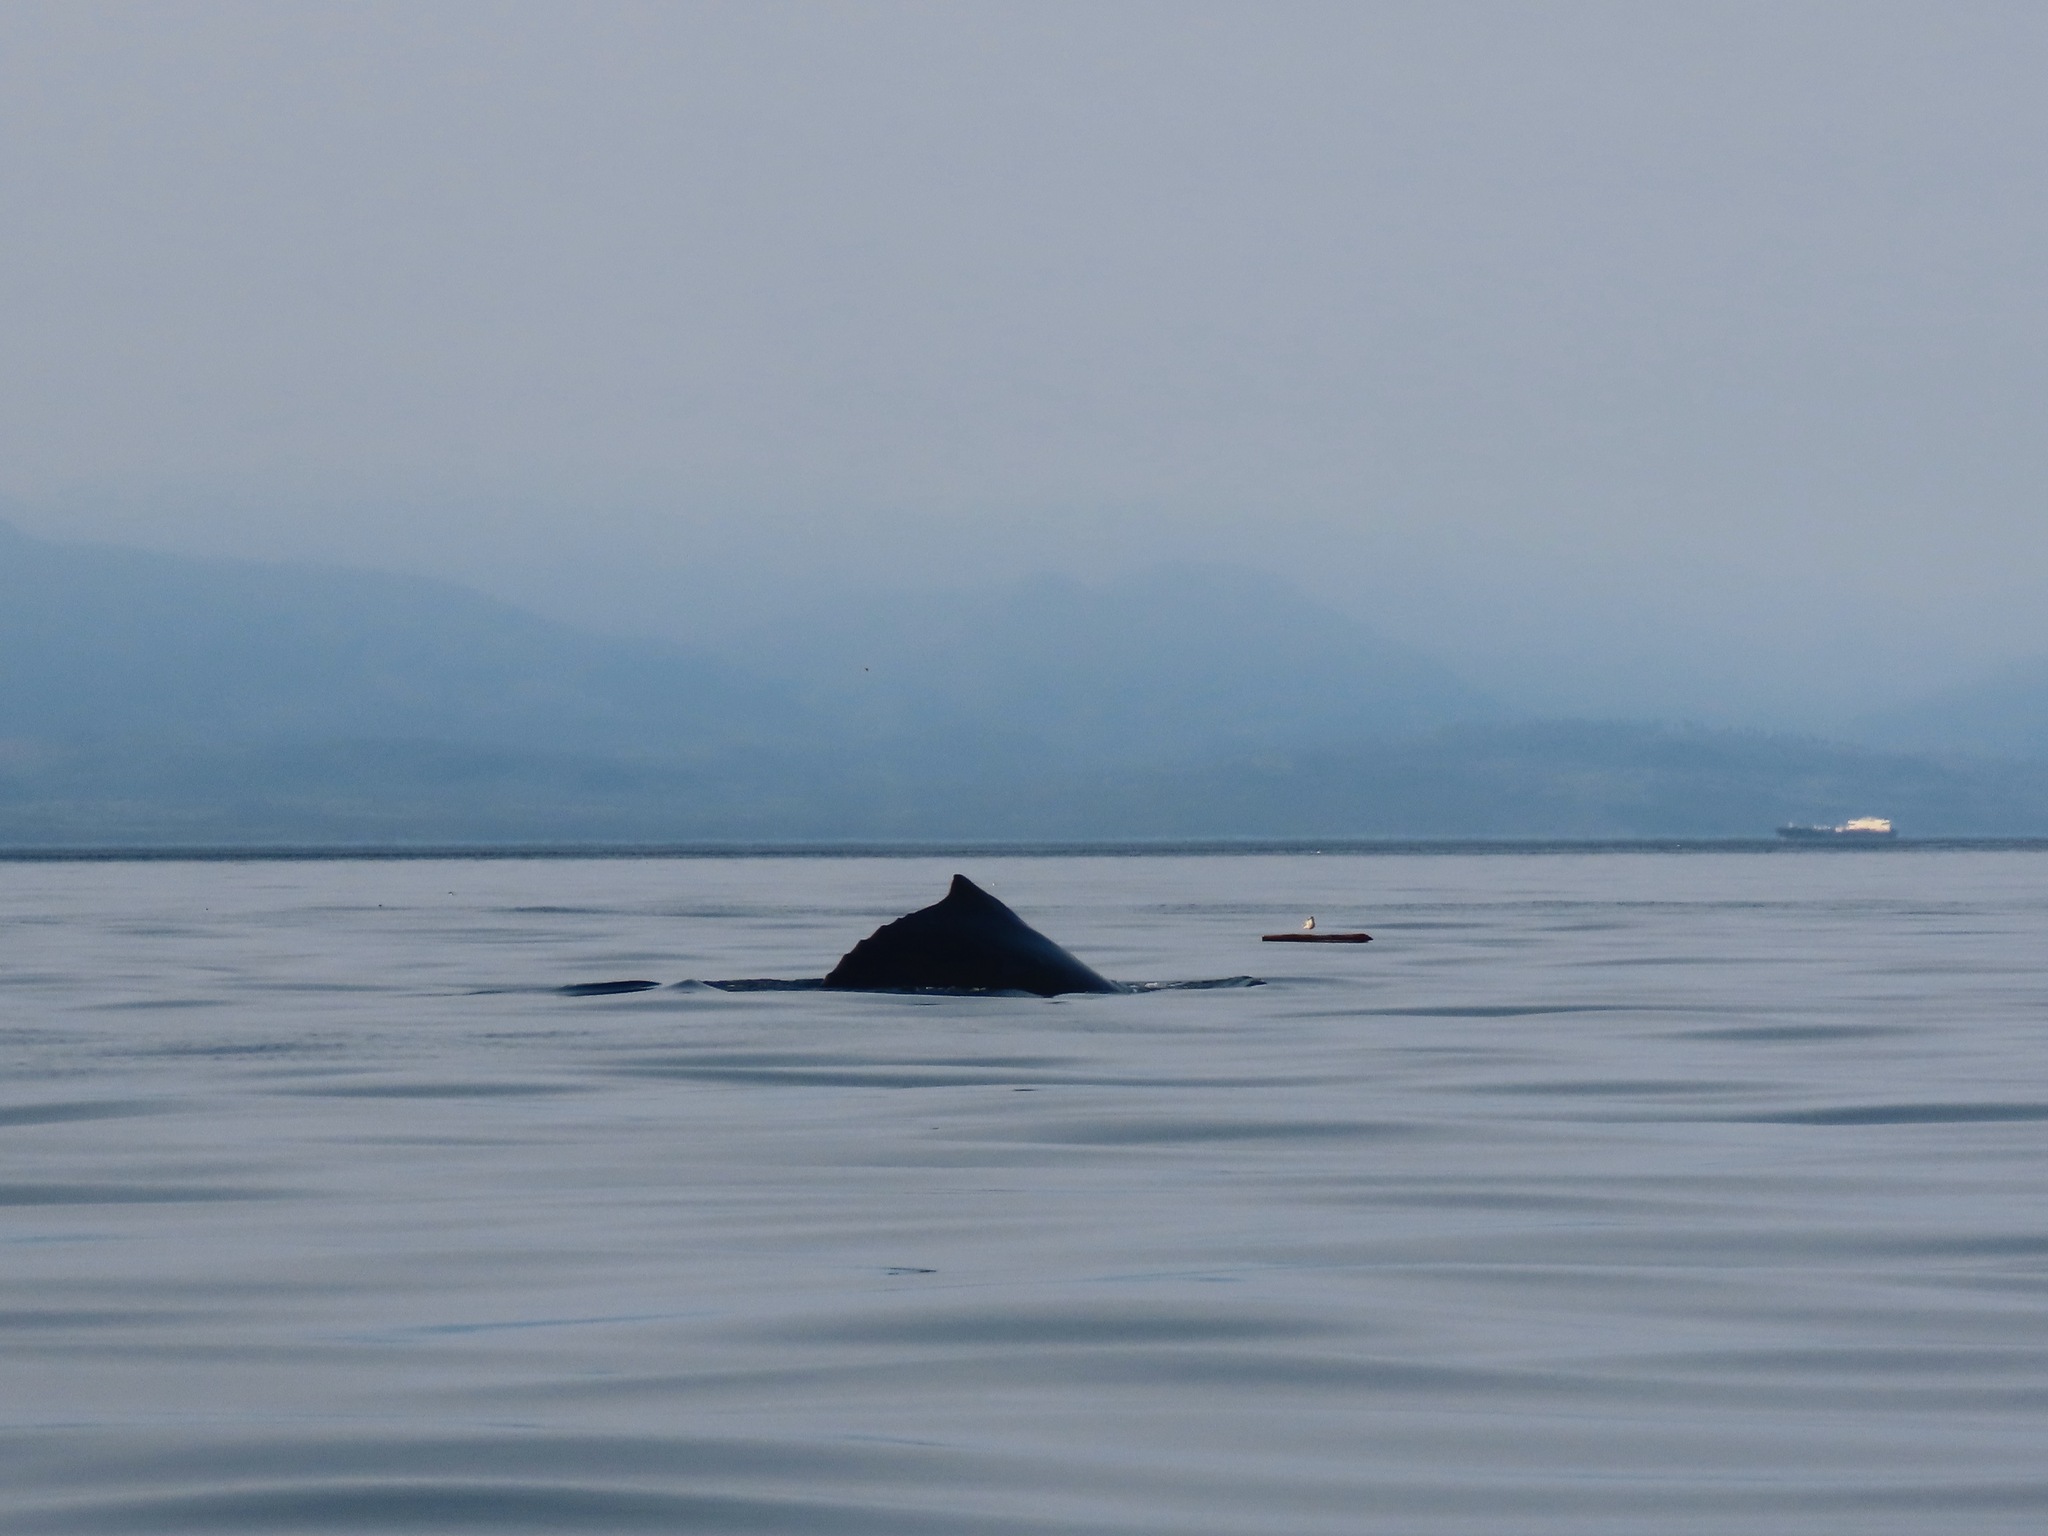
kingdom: Animalia
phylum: Chordata
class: Mammalia
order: Cetacea
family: Balaenopteridae
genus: Megaptera
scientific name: Megaptera novaeangliae
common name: Humpback whale
